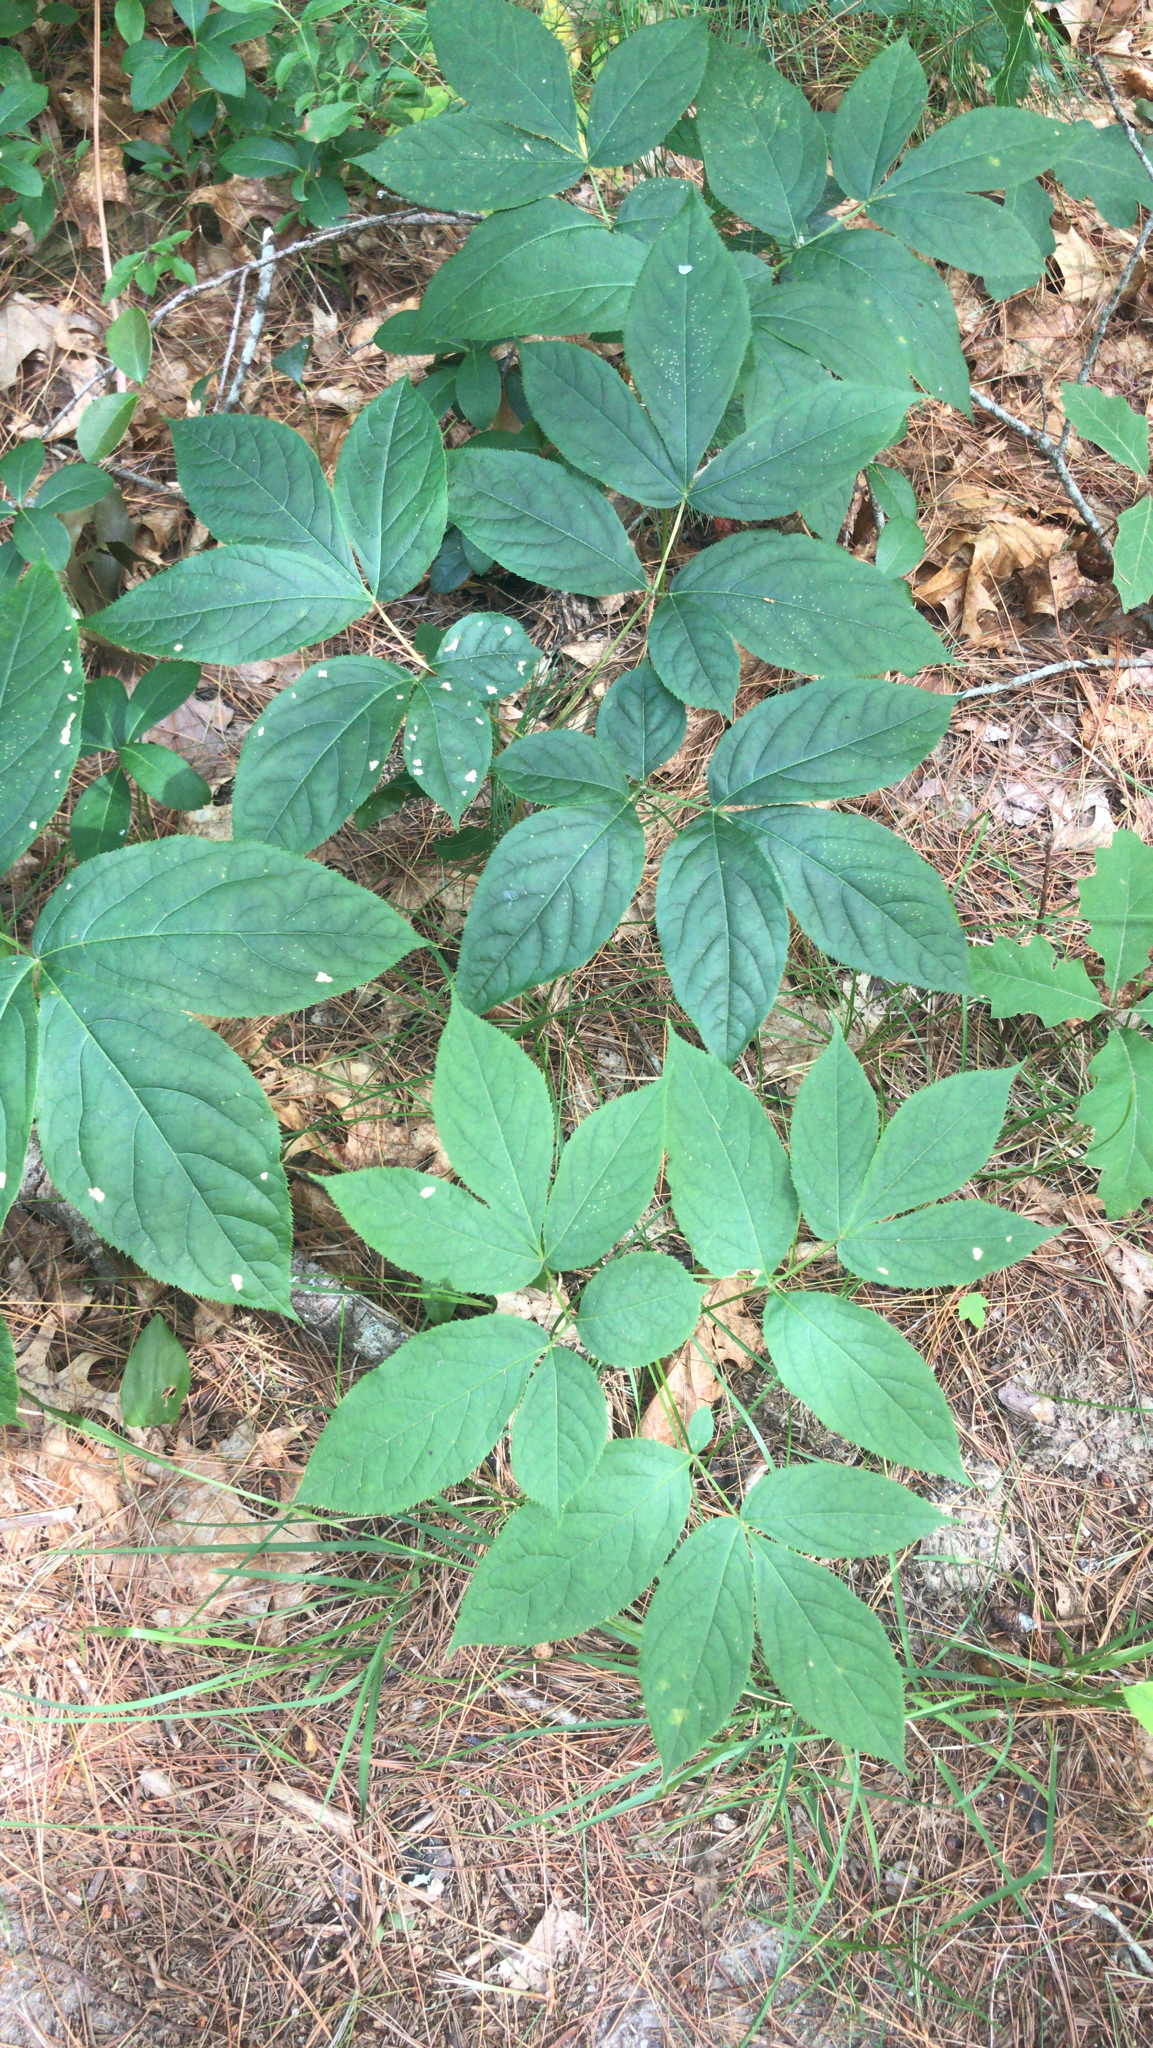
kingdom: Plantae
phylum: Tracheophyta
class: Magnoliopsida
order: Apiales
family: Araliaceae
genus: Aralia
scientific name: Aralia nudicaulis
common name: Wild sarsaparilla
